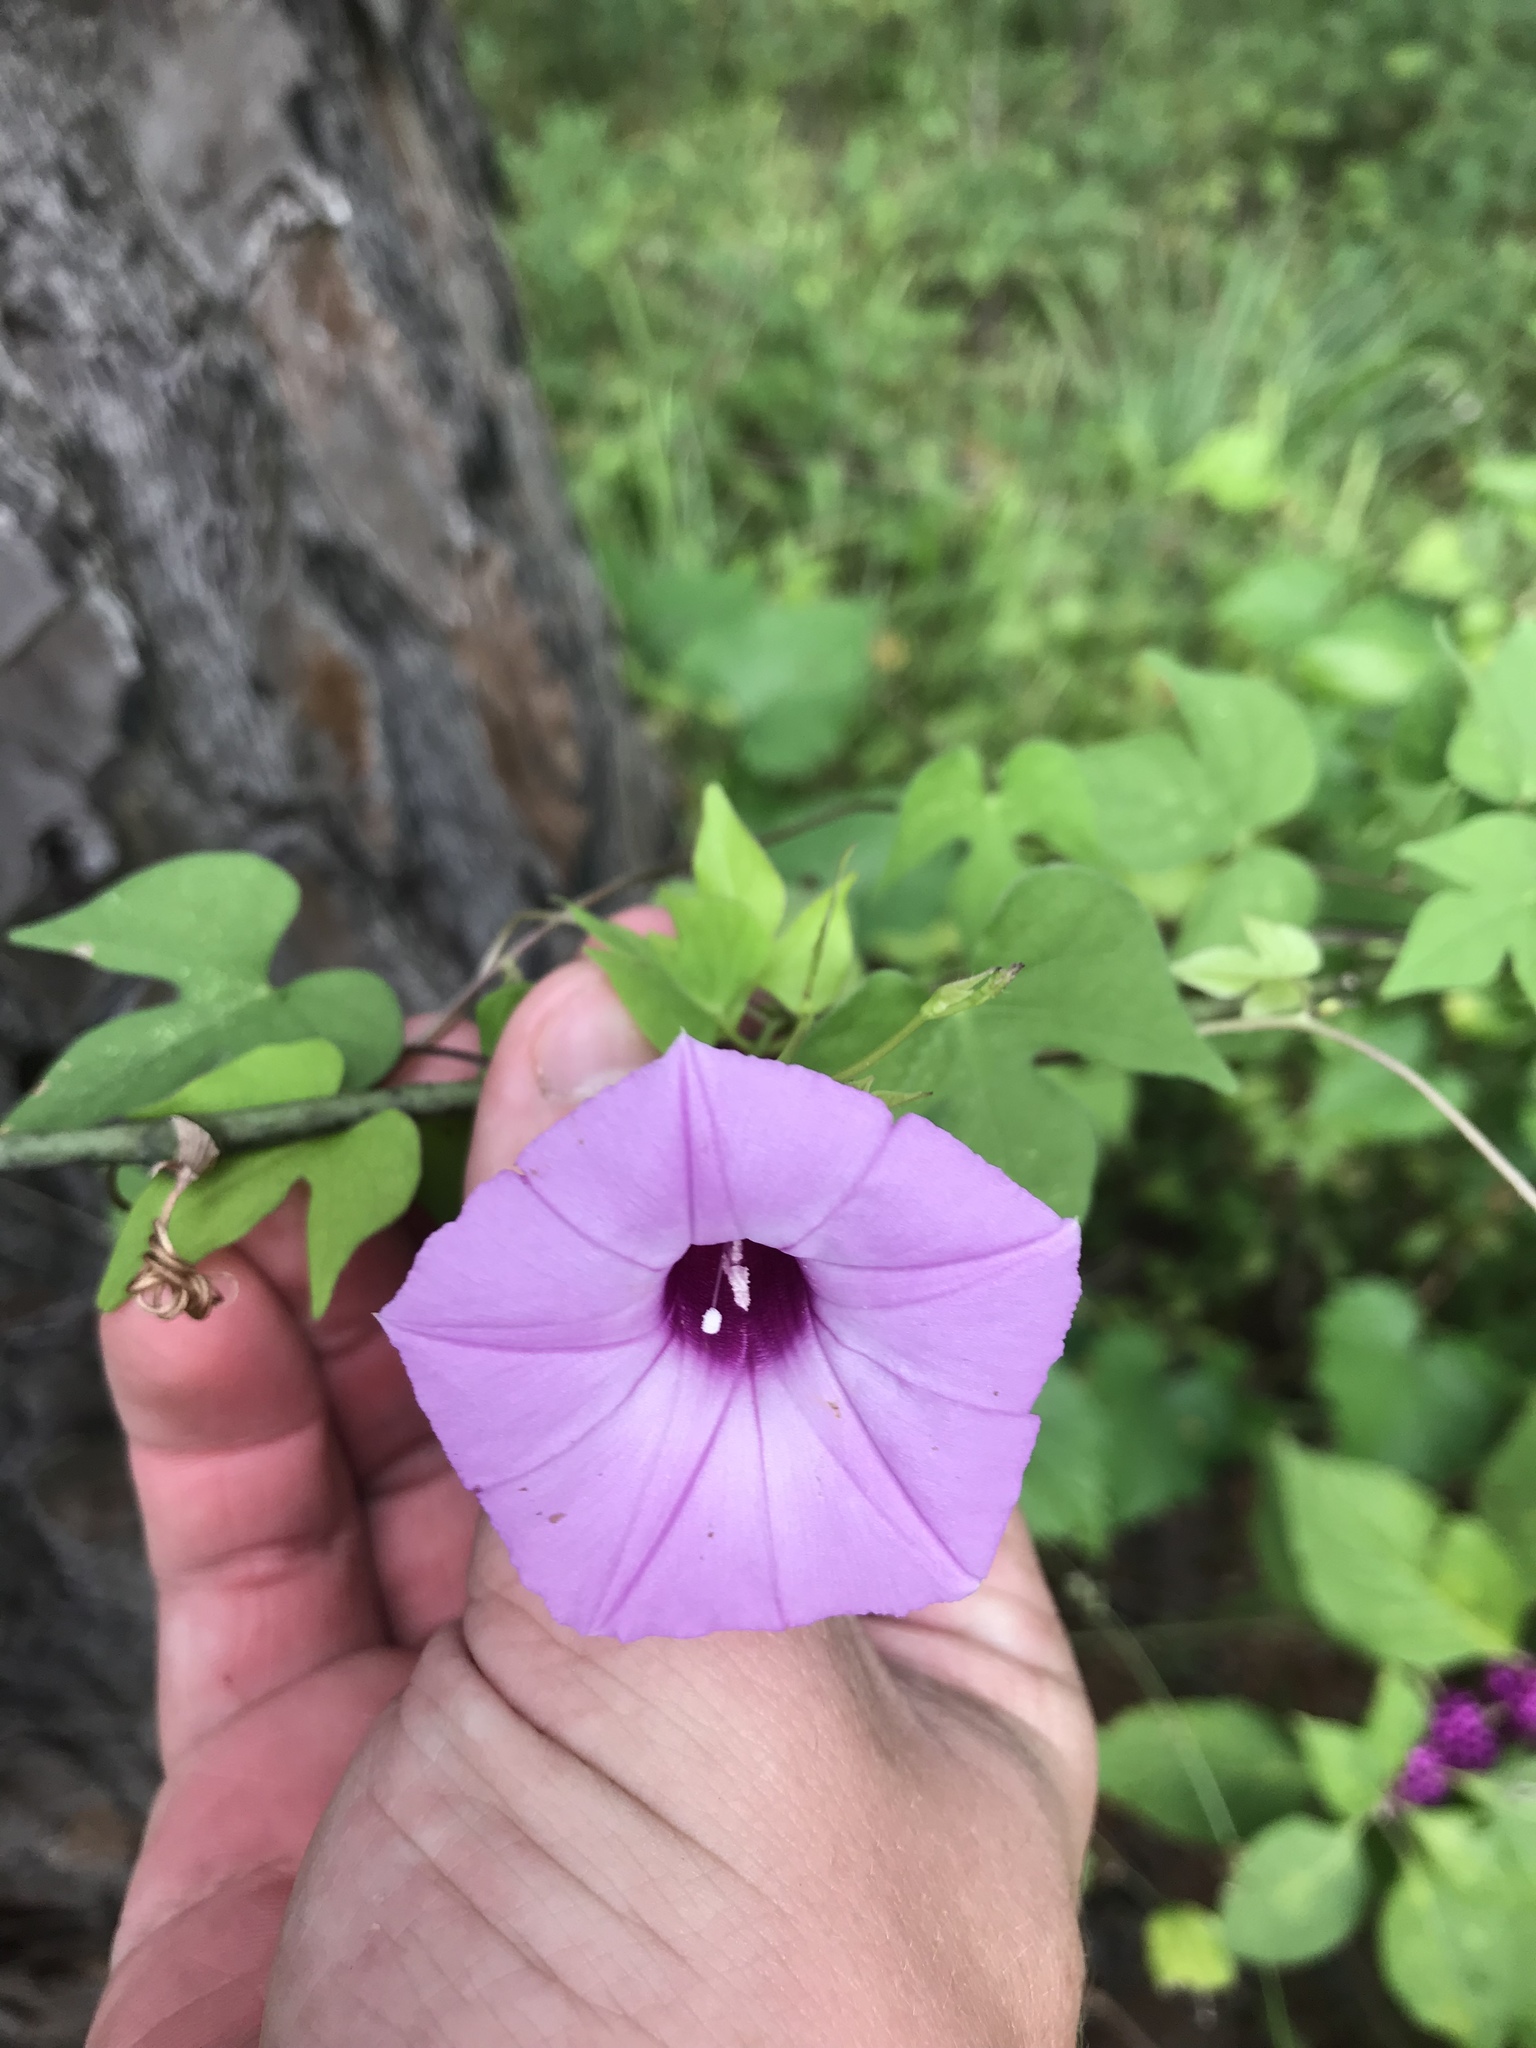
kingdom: Plantae
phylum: Tracheophyta
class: Magnoliopsida
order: Solanales
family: Convolvulaceae
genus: Ipomoea
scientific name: Ipomoea cordatotriloba
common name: Cotton morning glory
